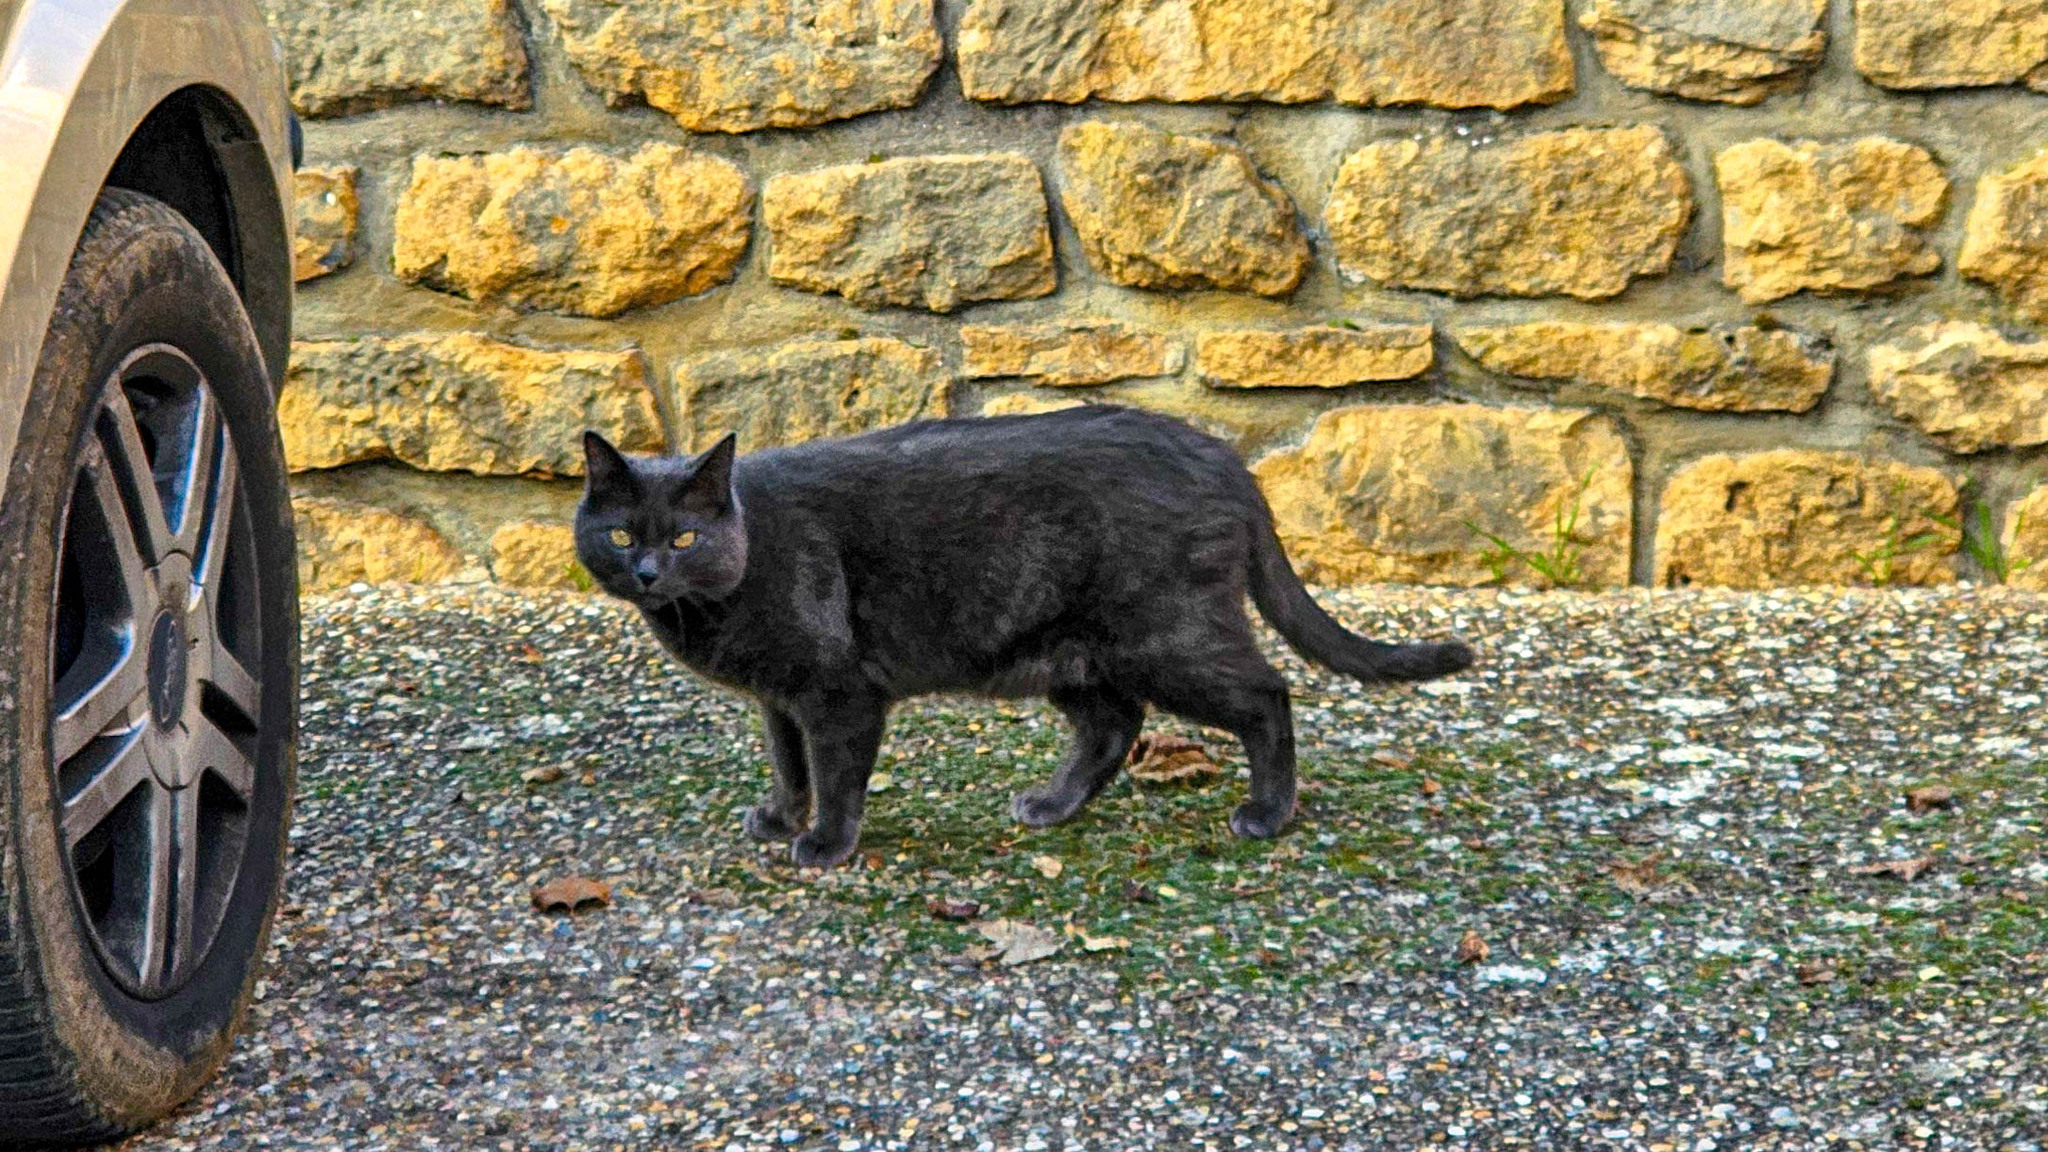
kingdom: Animalia
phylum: Chordata
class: Mammalia
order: Carnivora
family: Felidae
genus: Felis
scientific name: Felis catus
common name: Domestic cat
